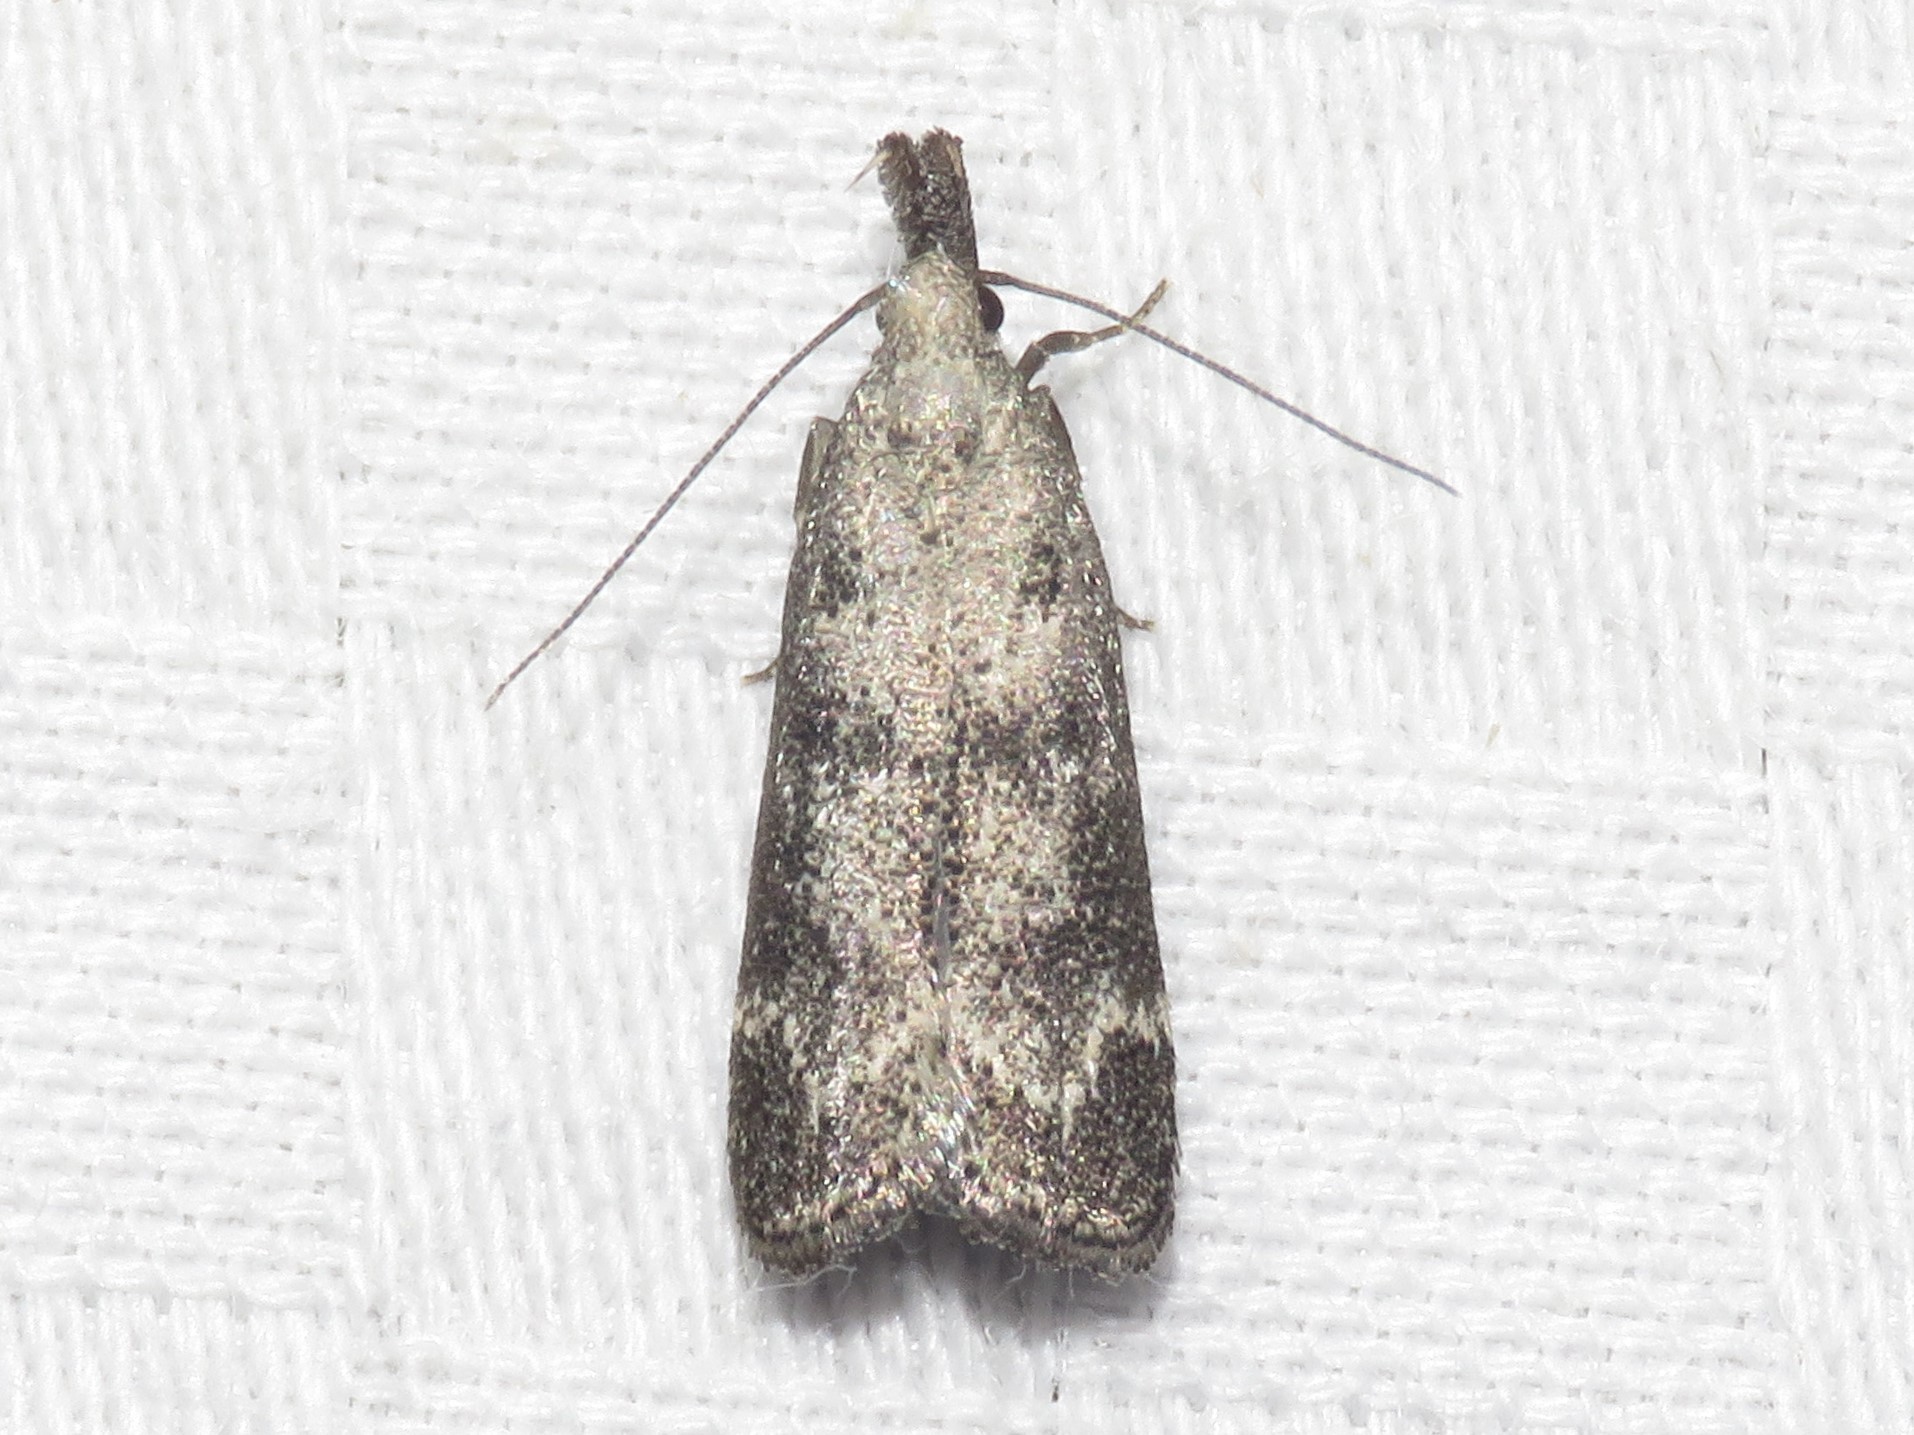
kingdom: Animalia
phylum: Arthropoda
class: Insecta
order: Lepidoptera
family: Gelechiidae
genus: Dichomeris
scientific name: Dichomeris inversella
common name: Inverse dichomeris moth
